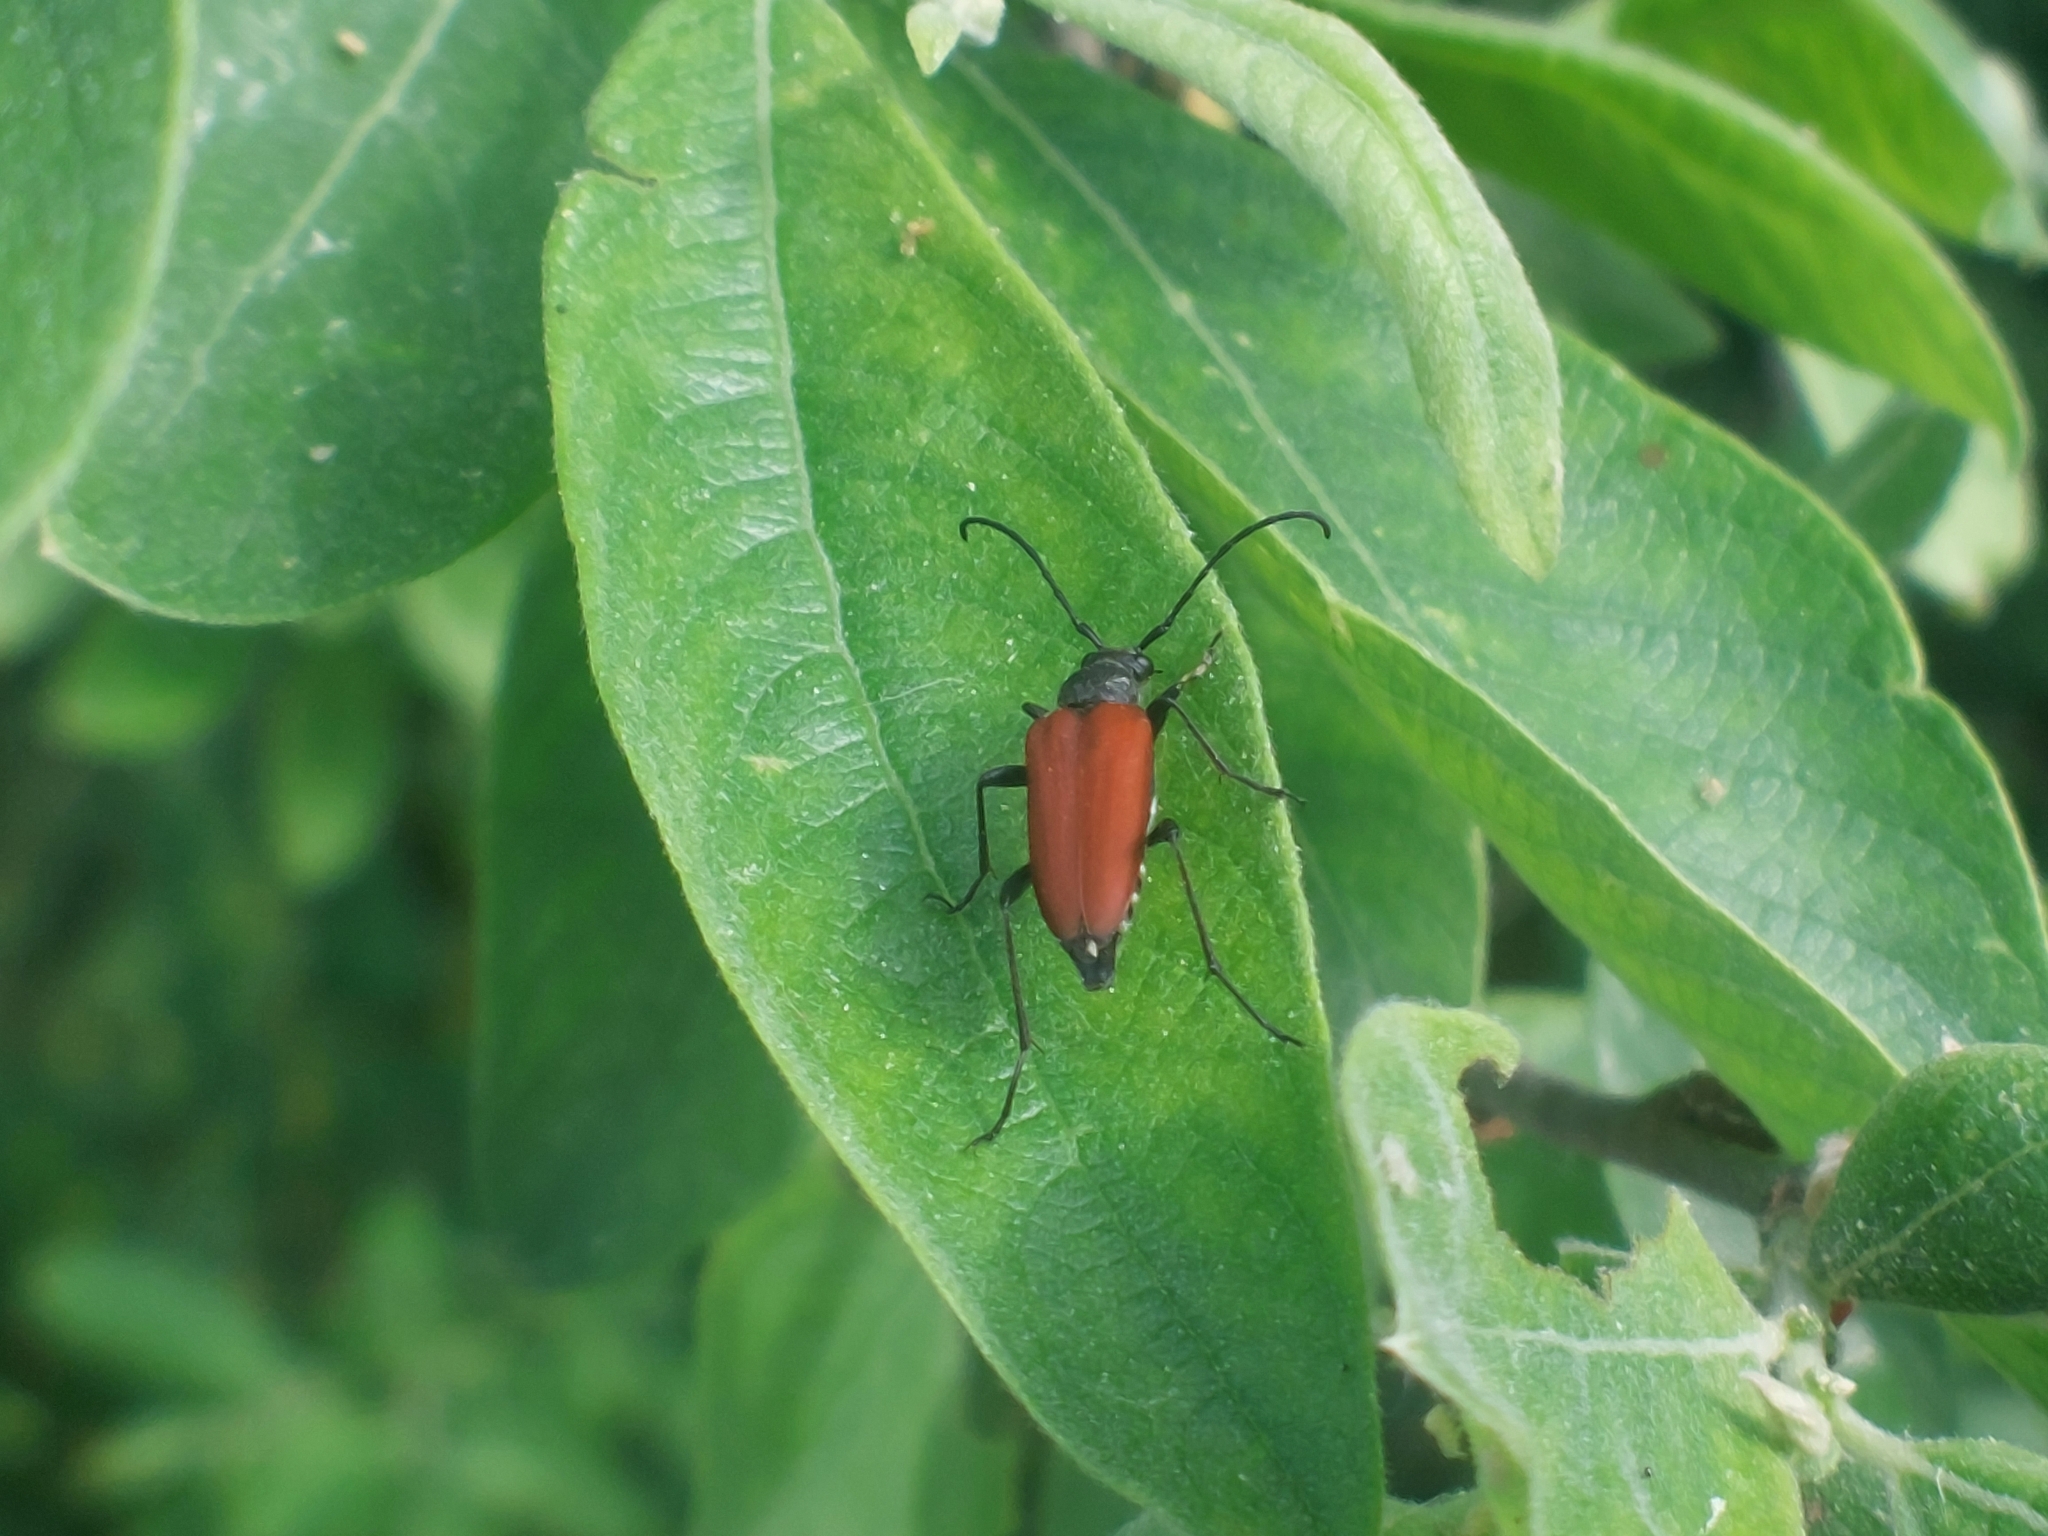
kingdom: Animalia
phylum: Arthropoda
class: Insecta
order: Coleoptera
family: Cerambycidae
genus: Anastrangalia
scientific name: Anastrangalia sanguinolenta
